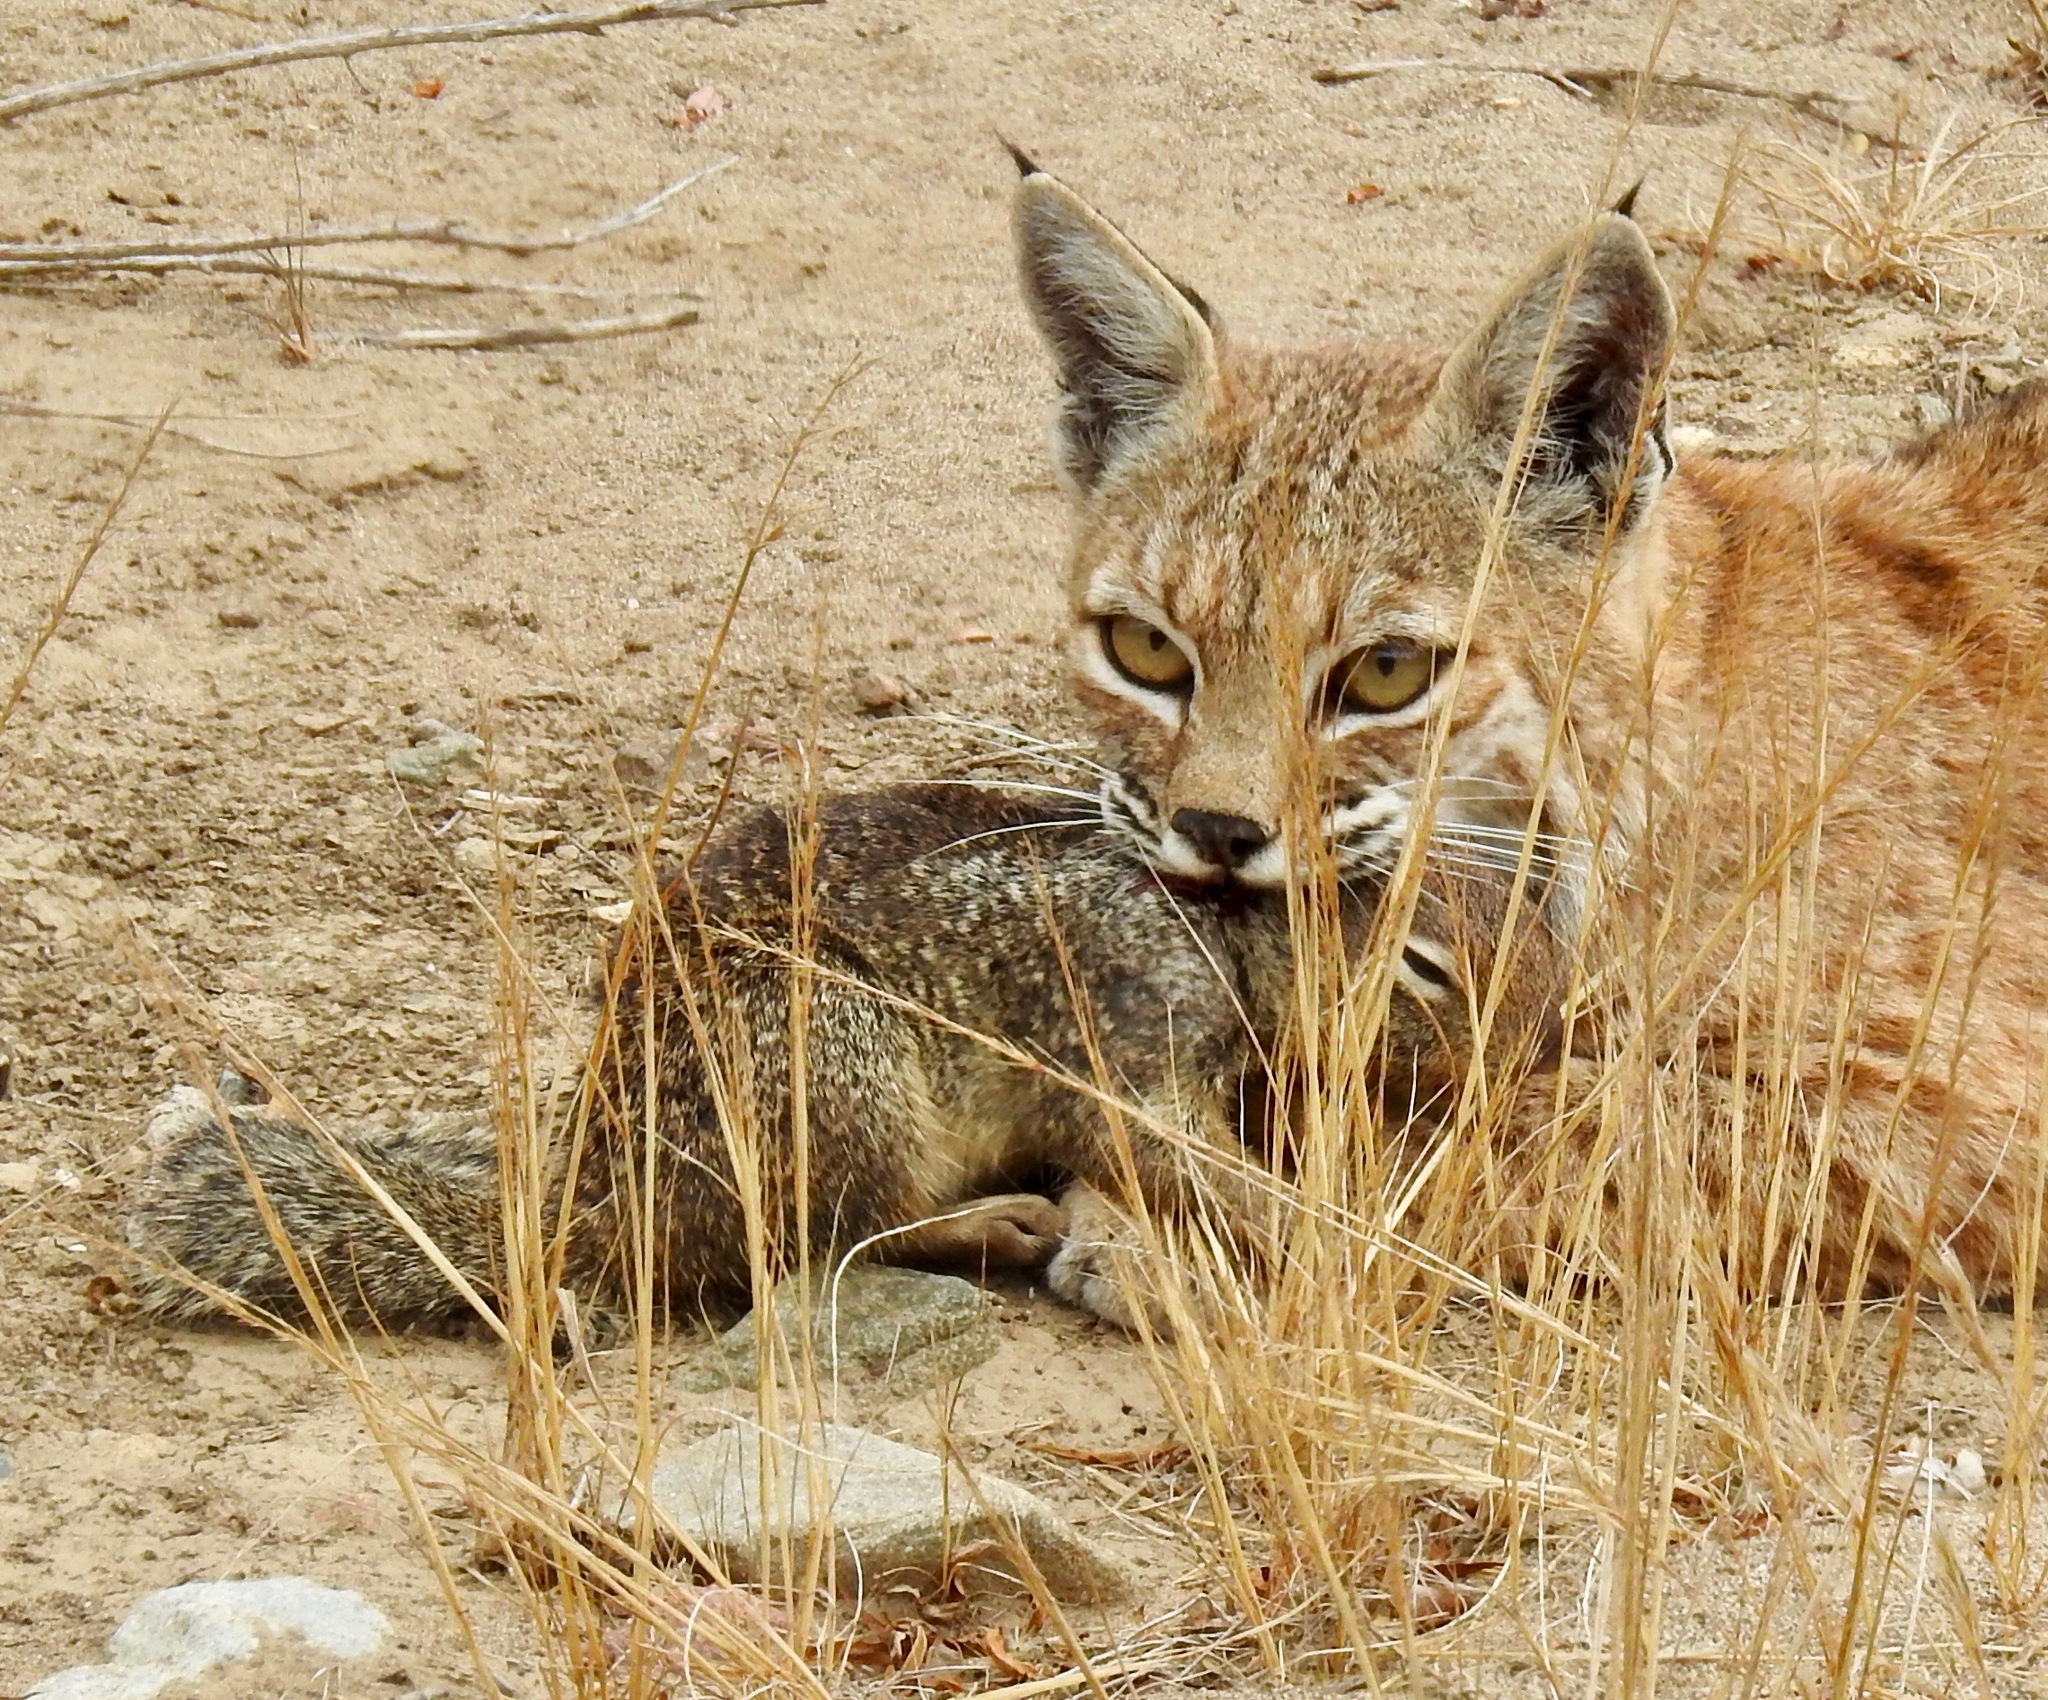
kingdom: Animalia
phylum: Chordata
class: Mammalia
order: Rodentia
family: Sciuridae
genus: Otospermophilus
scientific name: Otospermophilus beecheyi
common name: California ground squirrel
